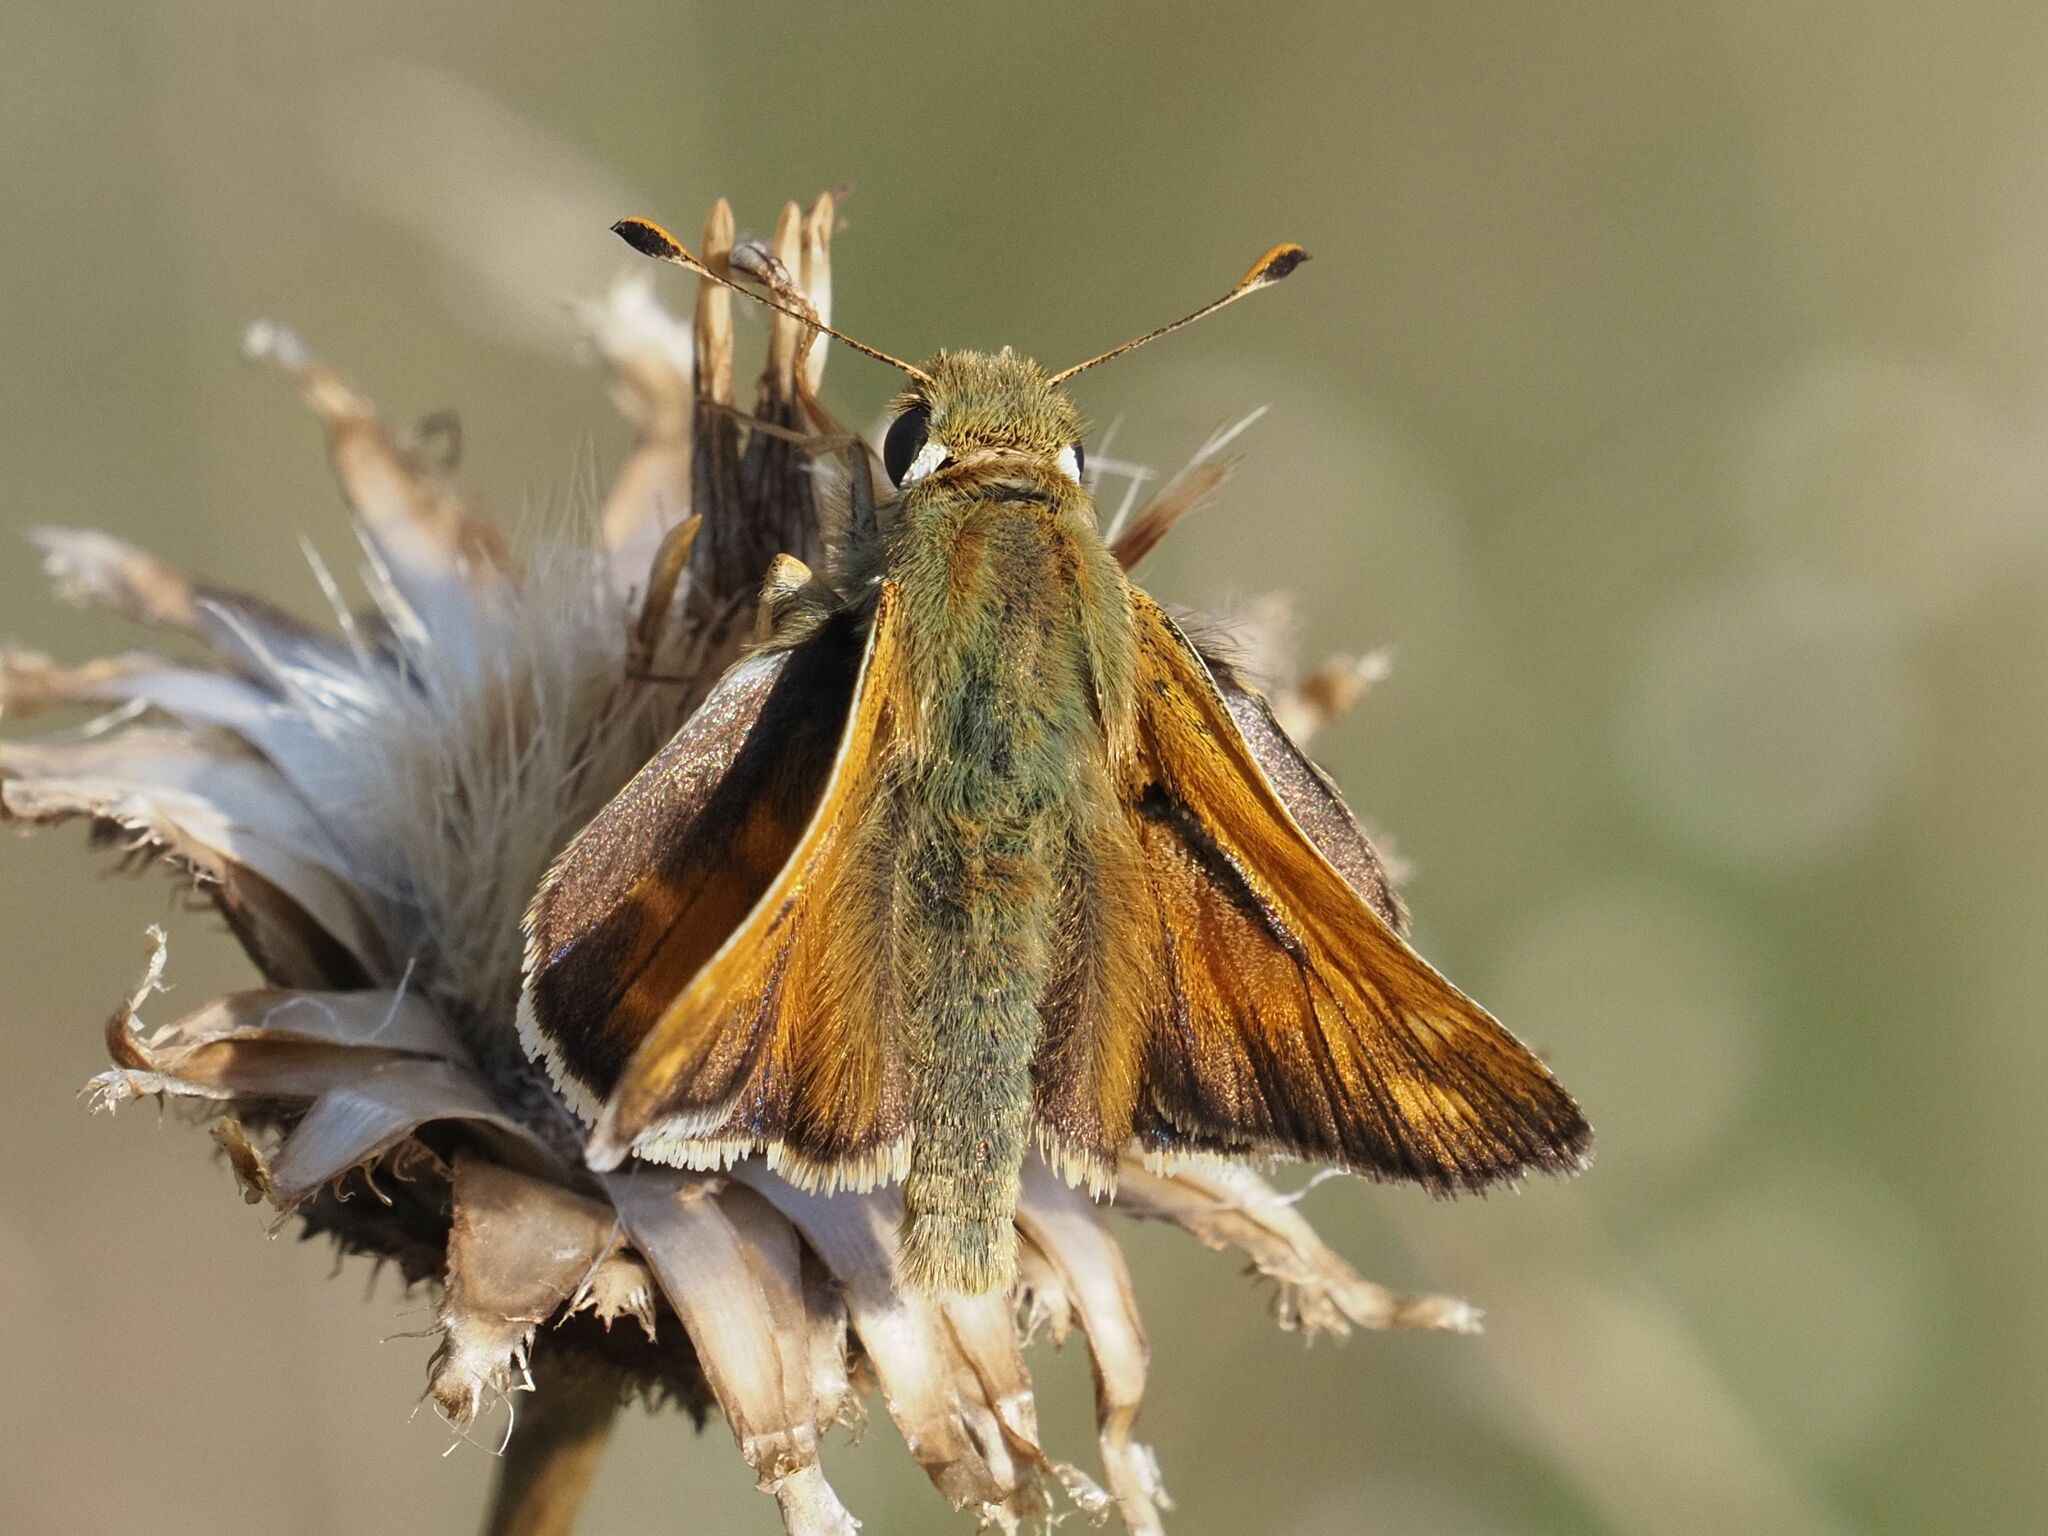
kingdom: Animalia
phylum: Arthropoda
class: Insecta
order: Lepidoptera
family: Hesperiidae
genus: Hesperia
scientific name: Hesperia comma
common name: Common branded skipper
